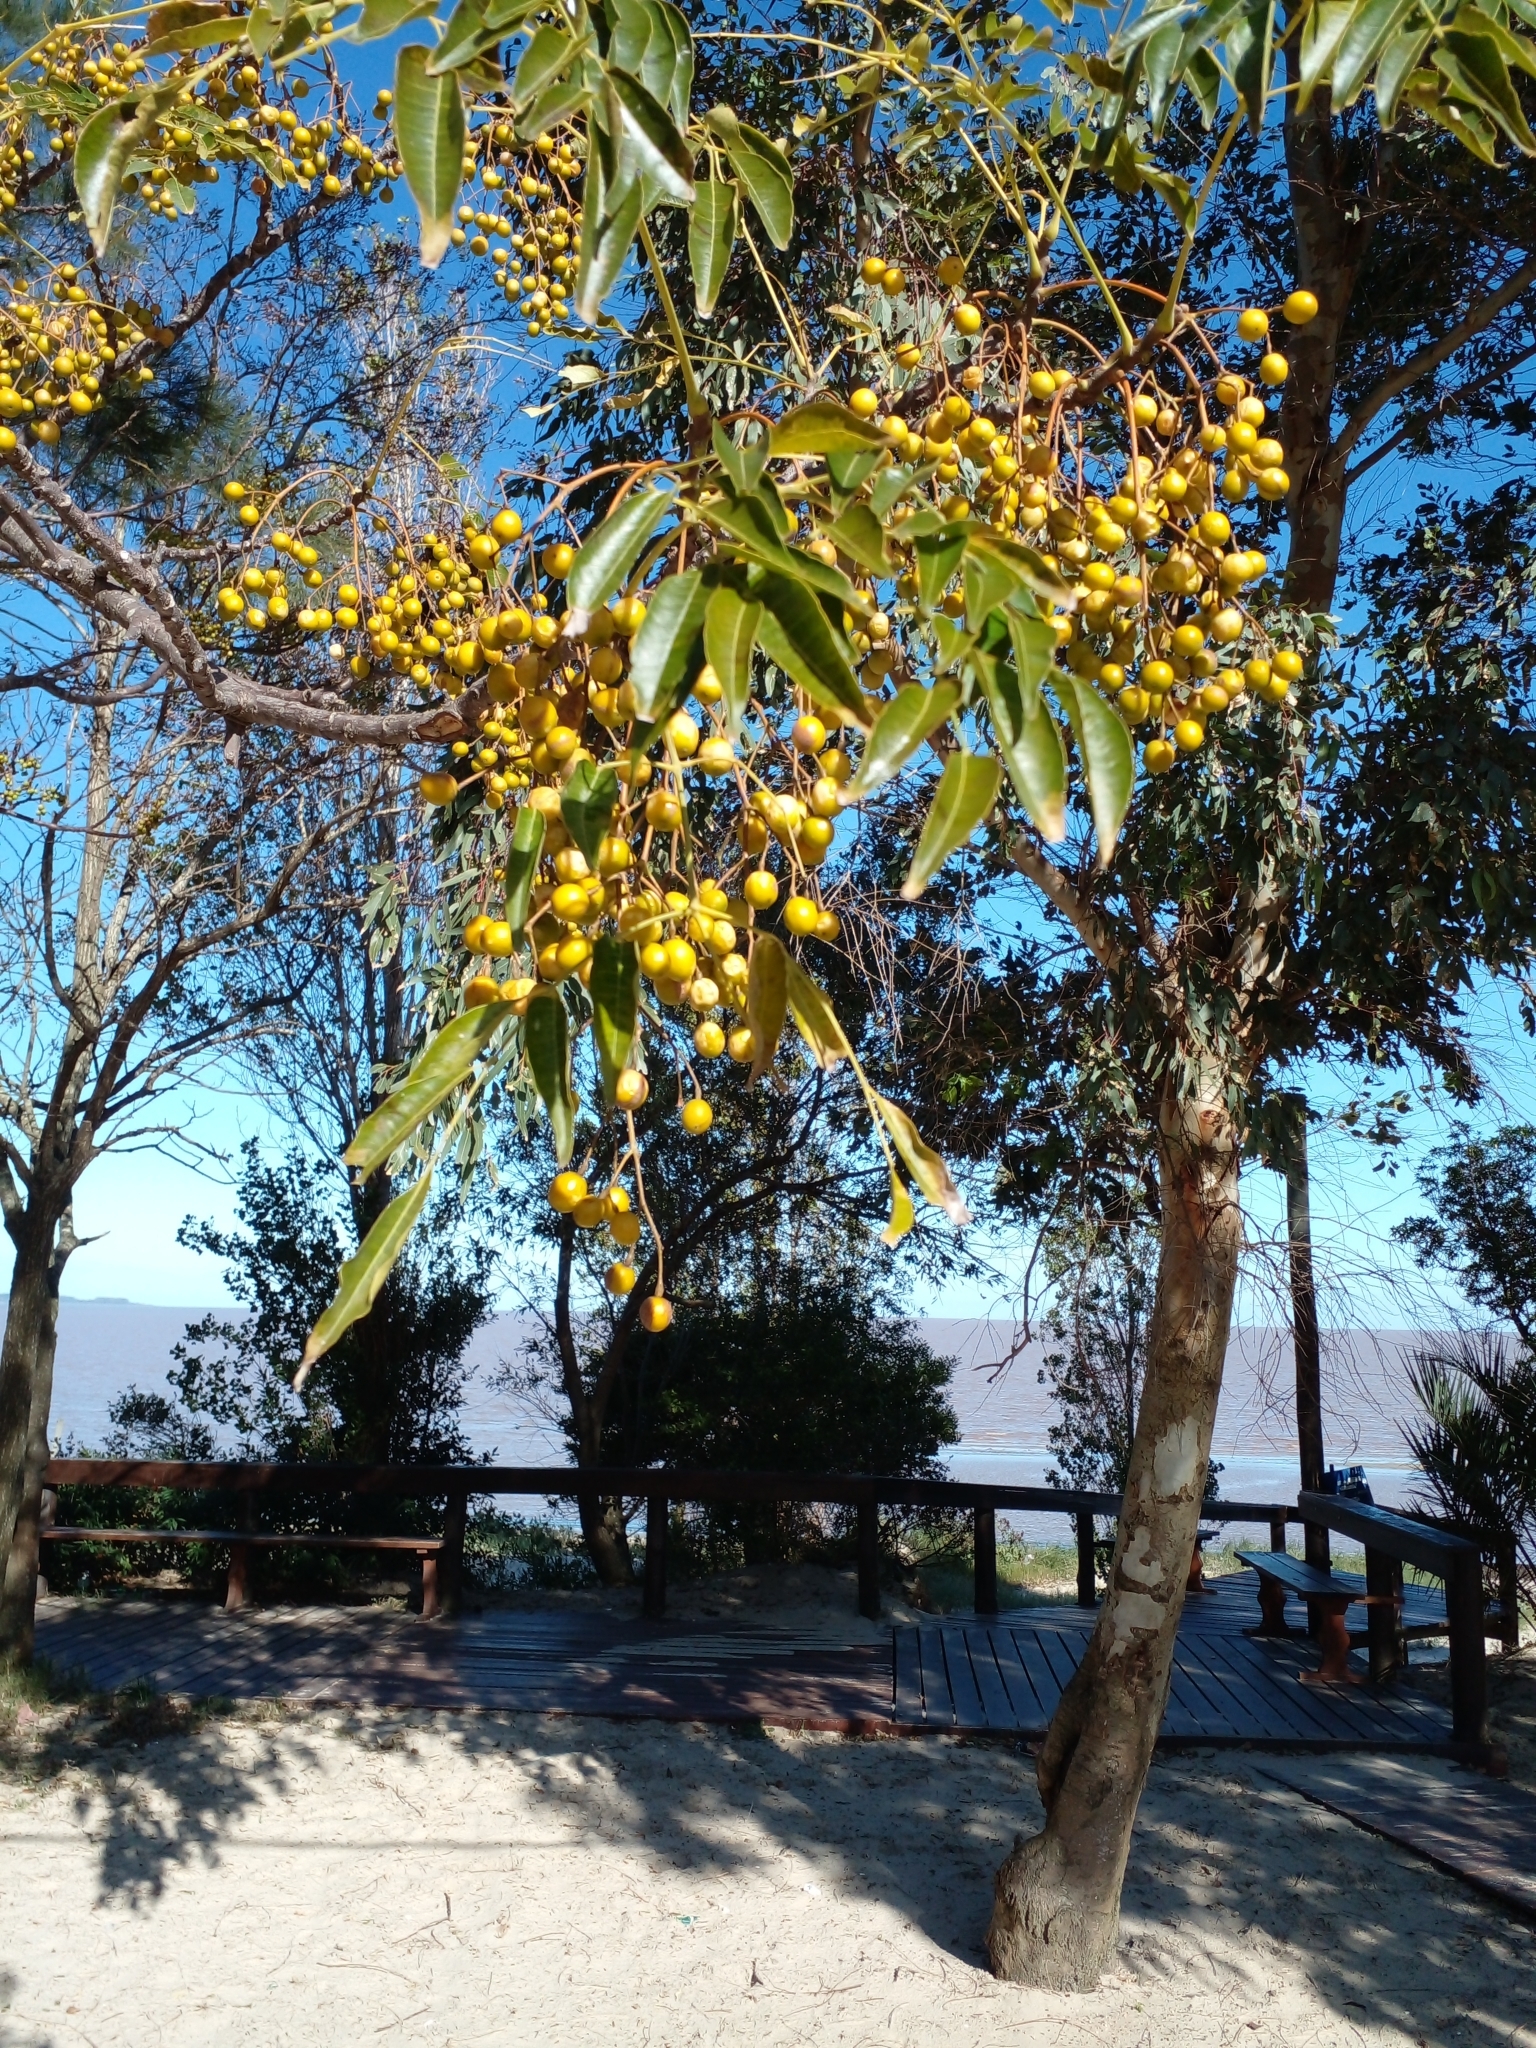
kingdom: Plantae
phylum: Tracheophyta
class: Magnoliopsida
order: Sapindales
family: Meliaceae
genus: Melia
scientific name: Melia azedarach
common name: Chinaberrytree
